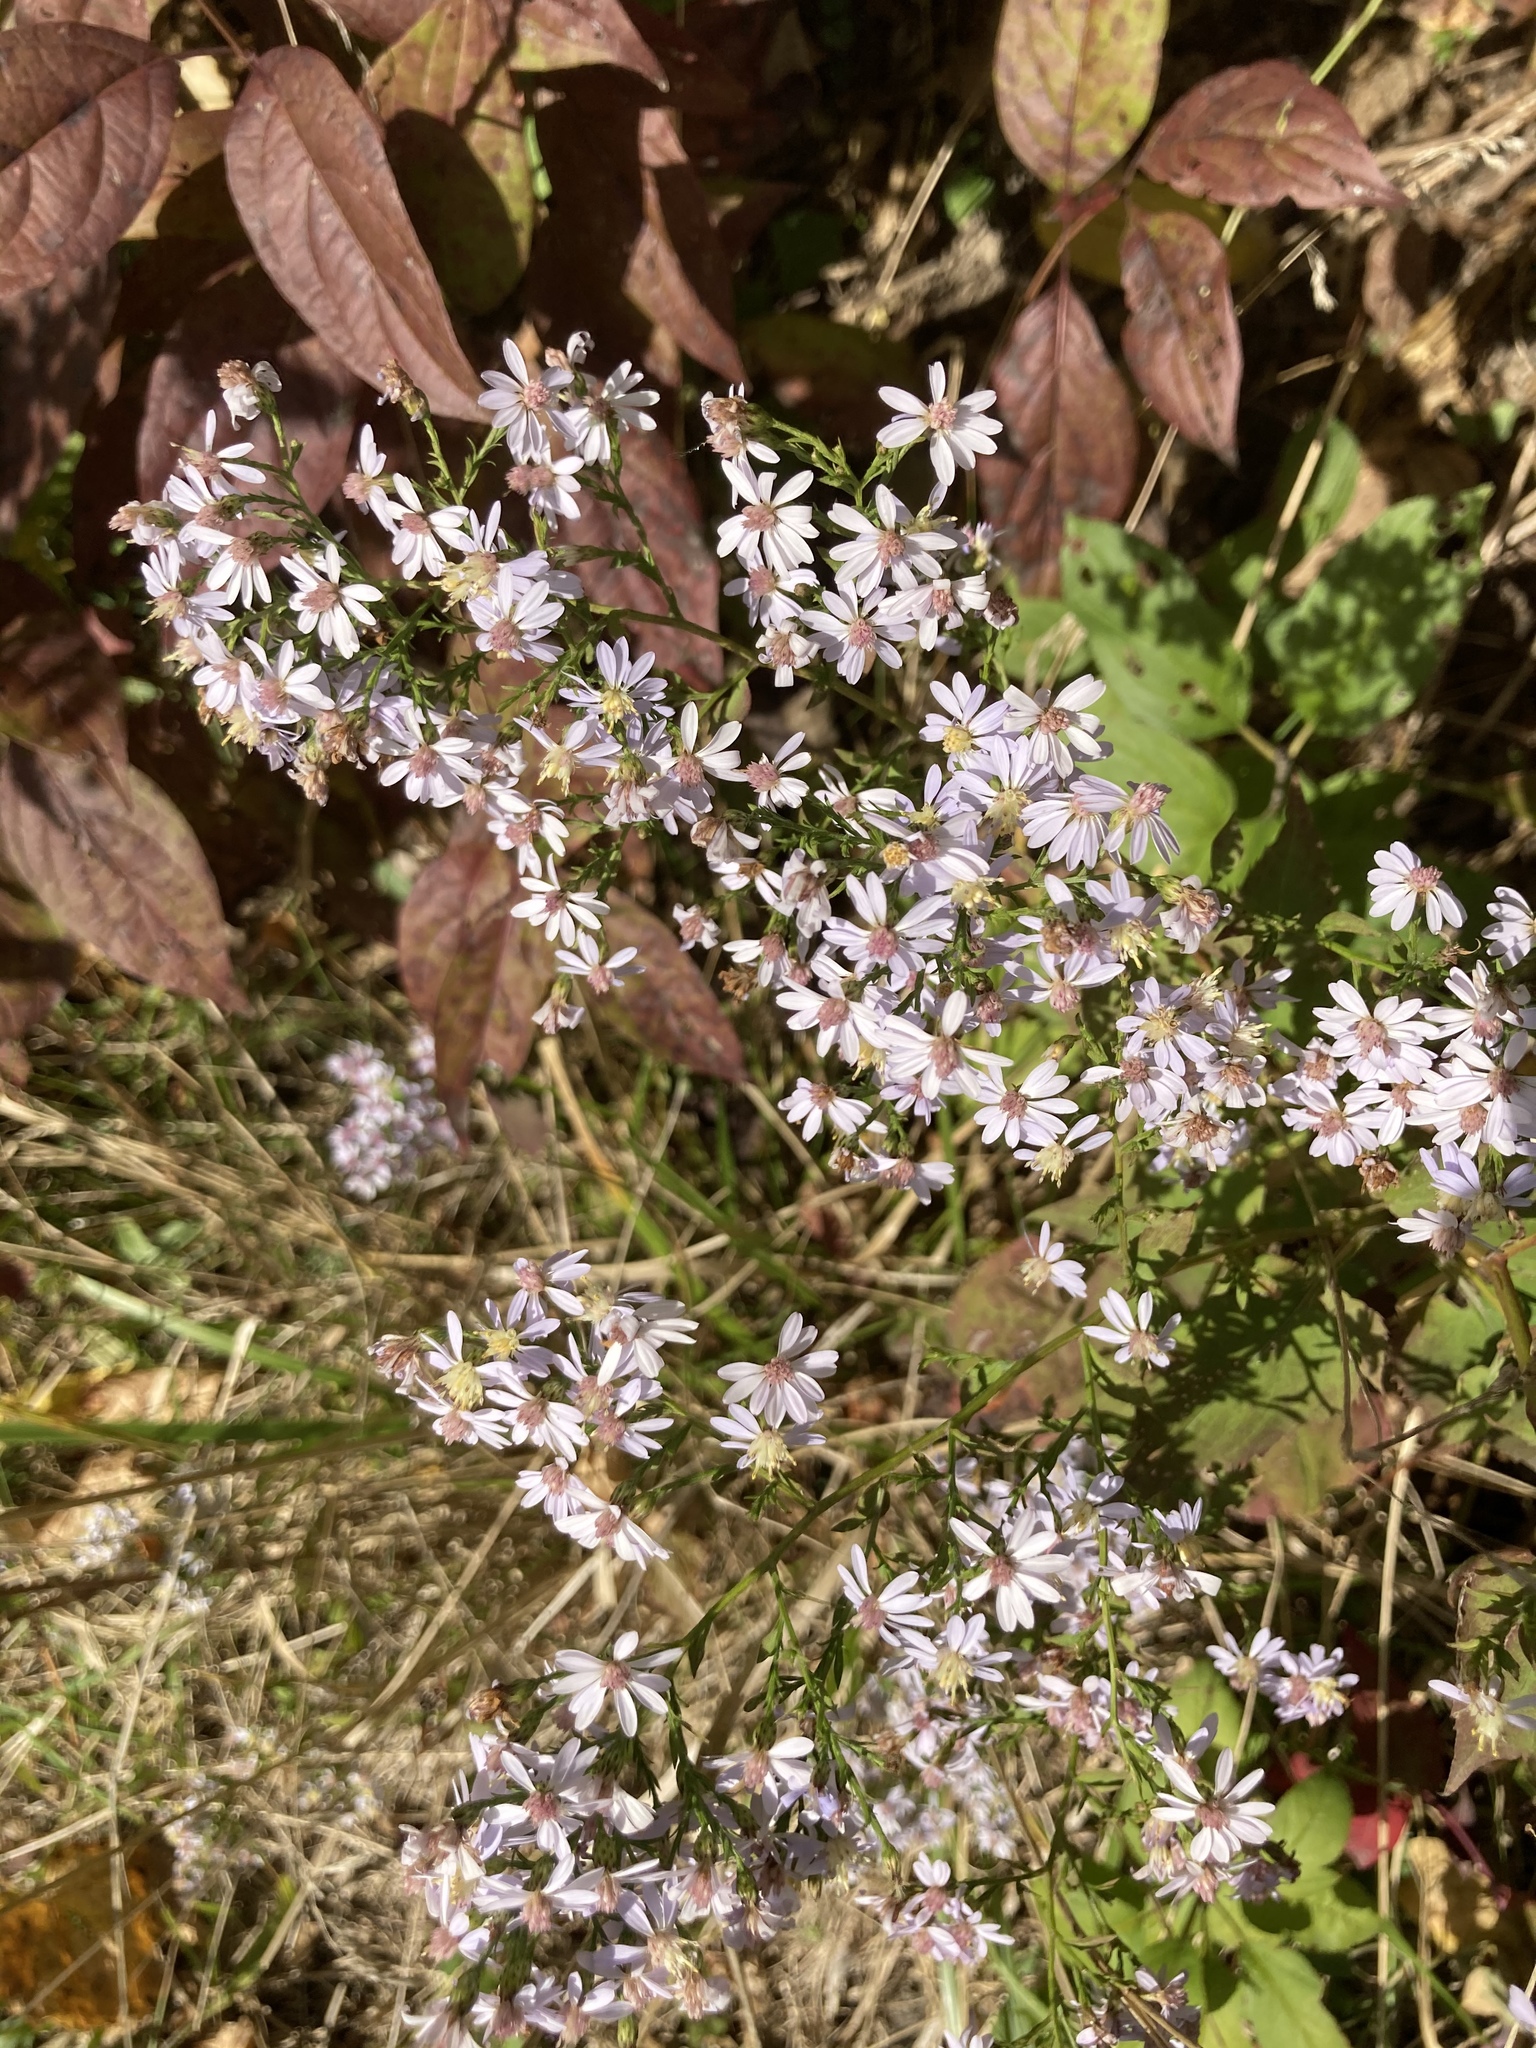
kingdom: Plantae
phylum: Tracheophyta
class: Magnoliopsida
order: Asterales
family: Asteraceae
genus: Symphyotrichum
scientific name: Symphyotrichum cordifolium
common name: Beeweed
